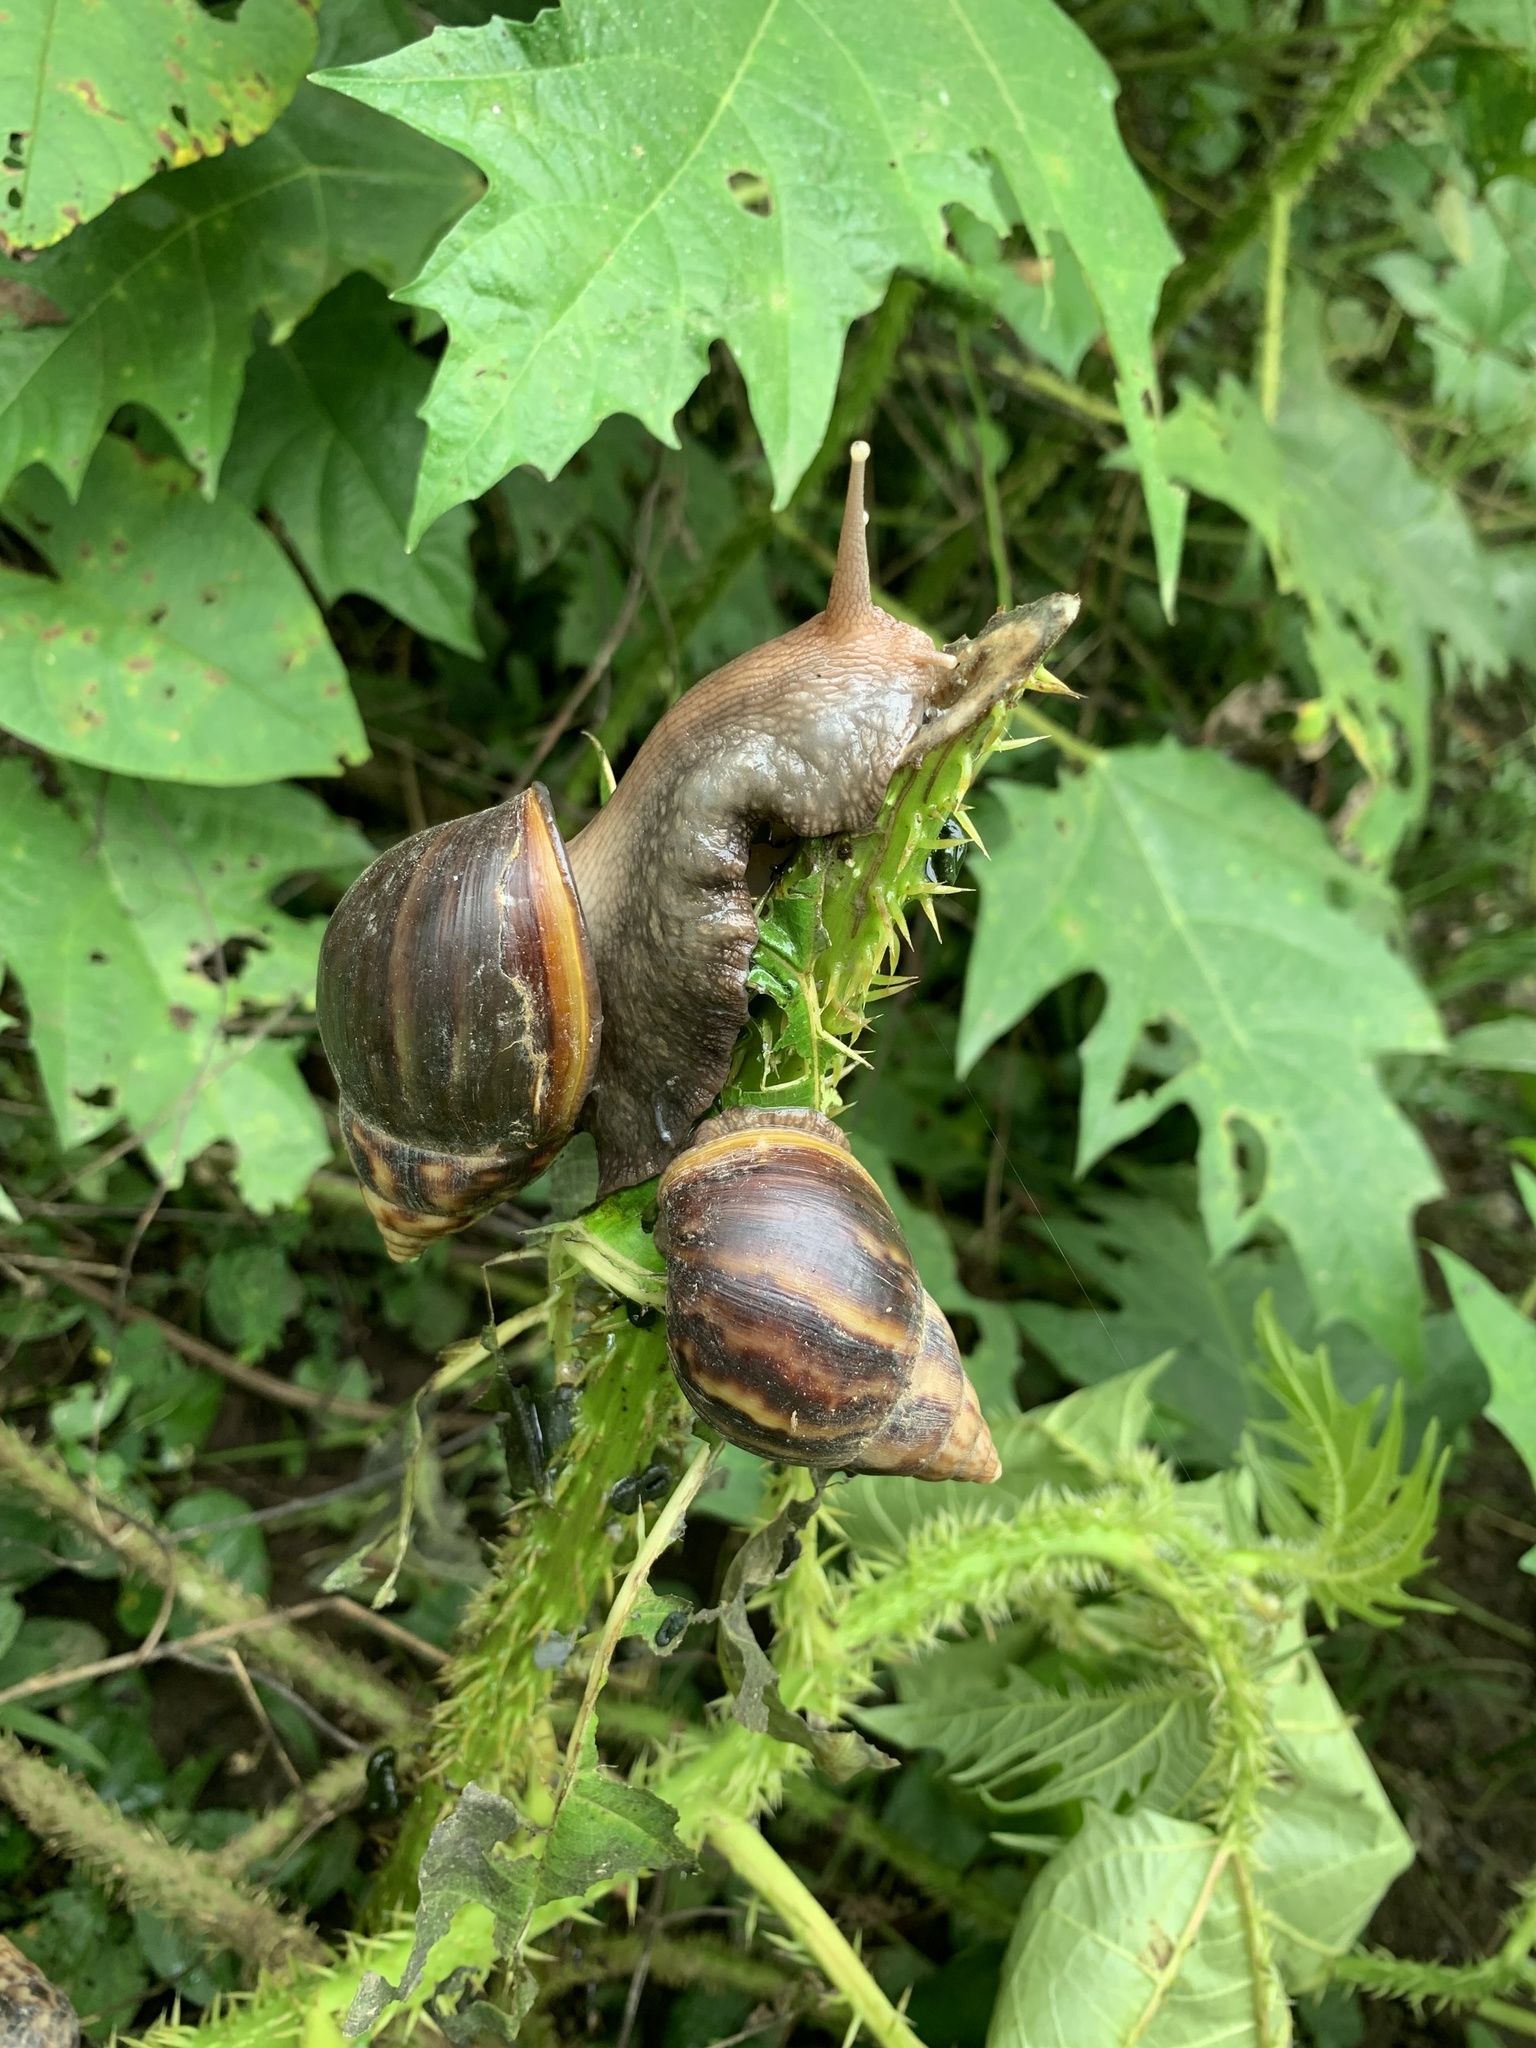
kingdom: Animalia
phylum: Mollusca
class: Gastropoda
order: Stylommatophora
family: Achatinidae
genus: Lissachatina
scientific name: Lissachatina fulica
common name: Giant african snail
